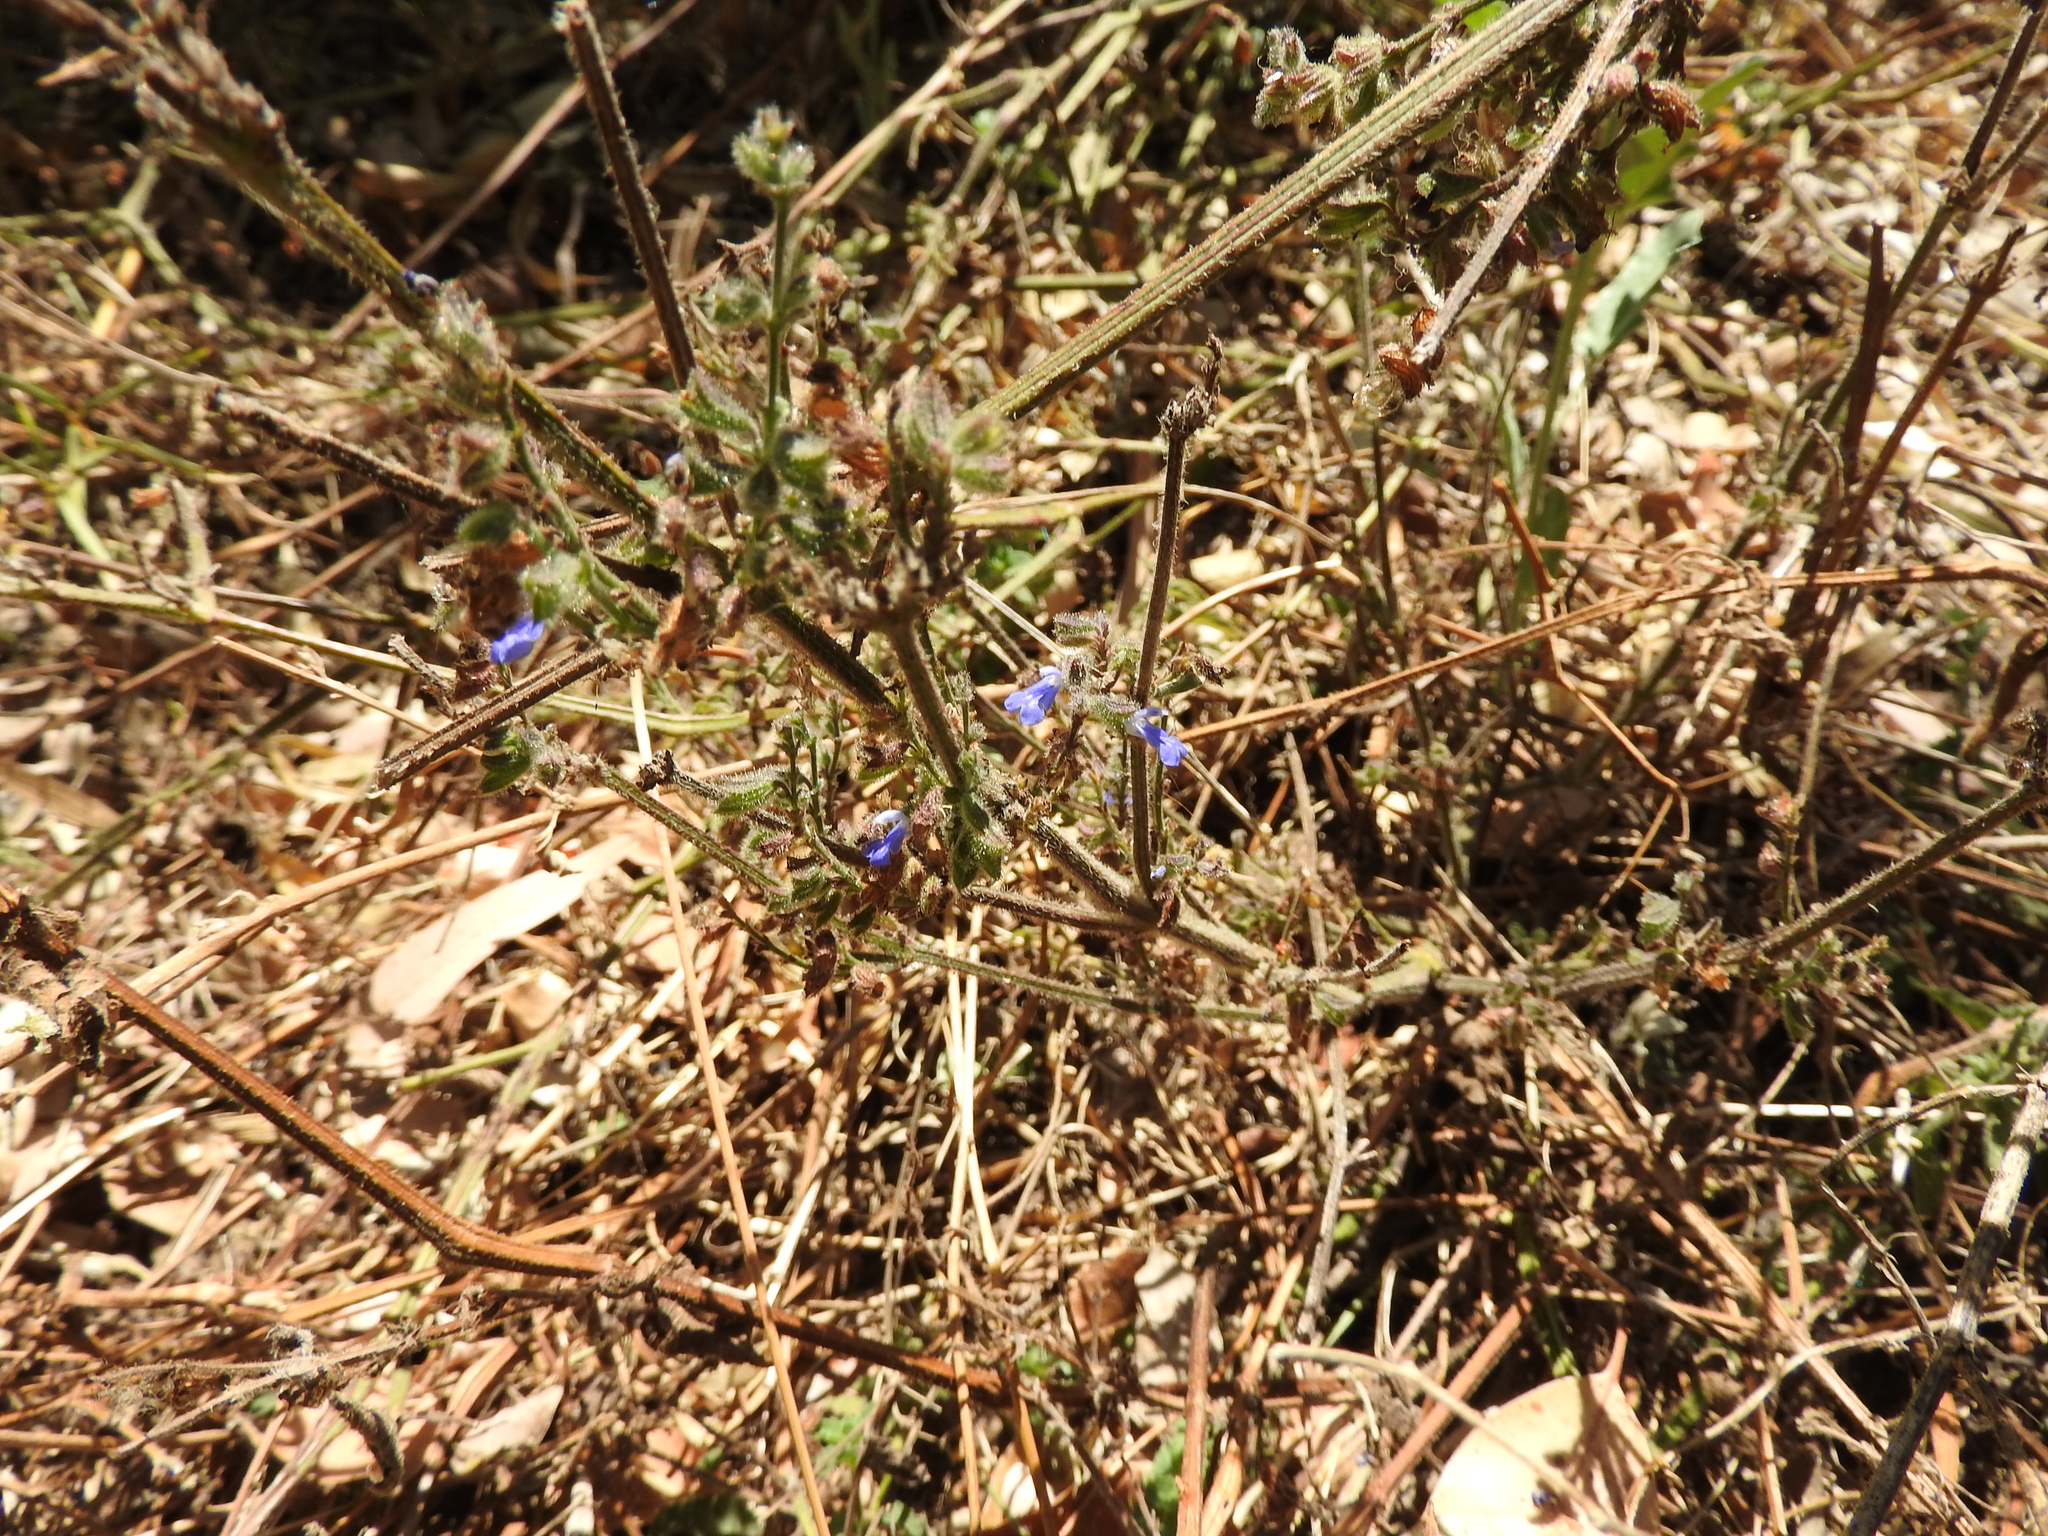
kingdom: Plantae
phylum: Tracheophyta
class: Magnoliopsida
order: Lamiales
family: Lamiaceae
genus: Salvia
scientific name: Salvia misella
